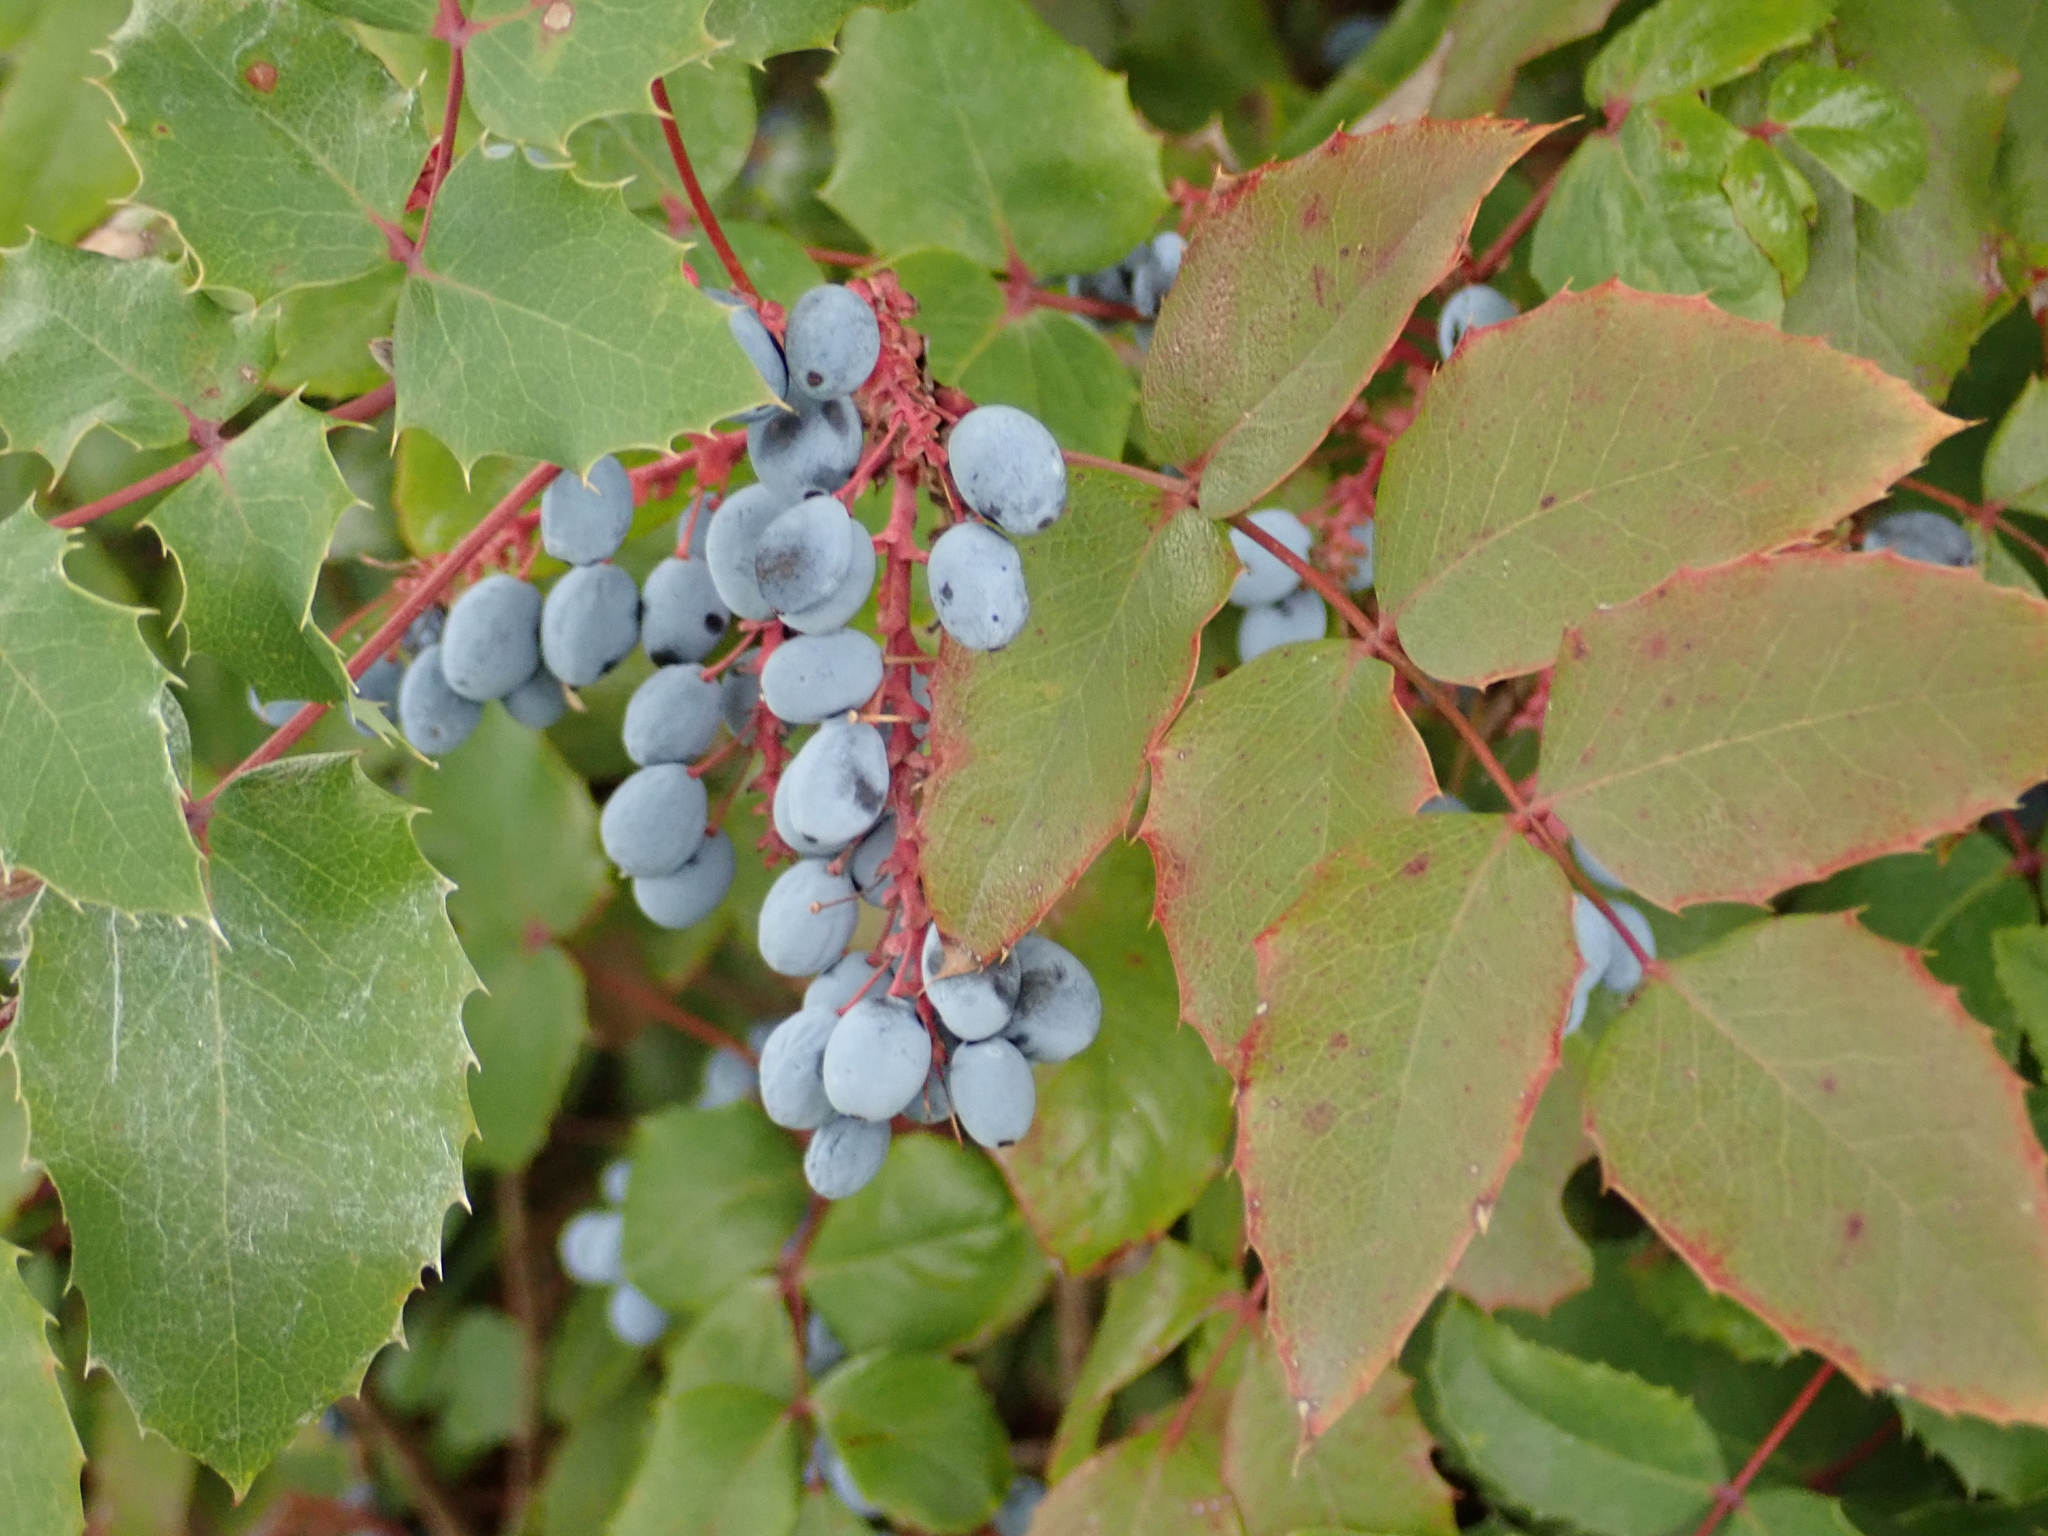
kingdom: Plantae
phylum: Tracheophyta
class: Magnoliopsida
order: Ranunculales
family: Berberidaceae
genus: Mahonia
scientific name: Mahonia aquifolium
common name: Oregon-grape
